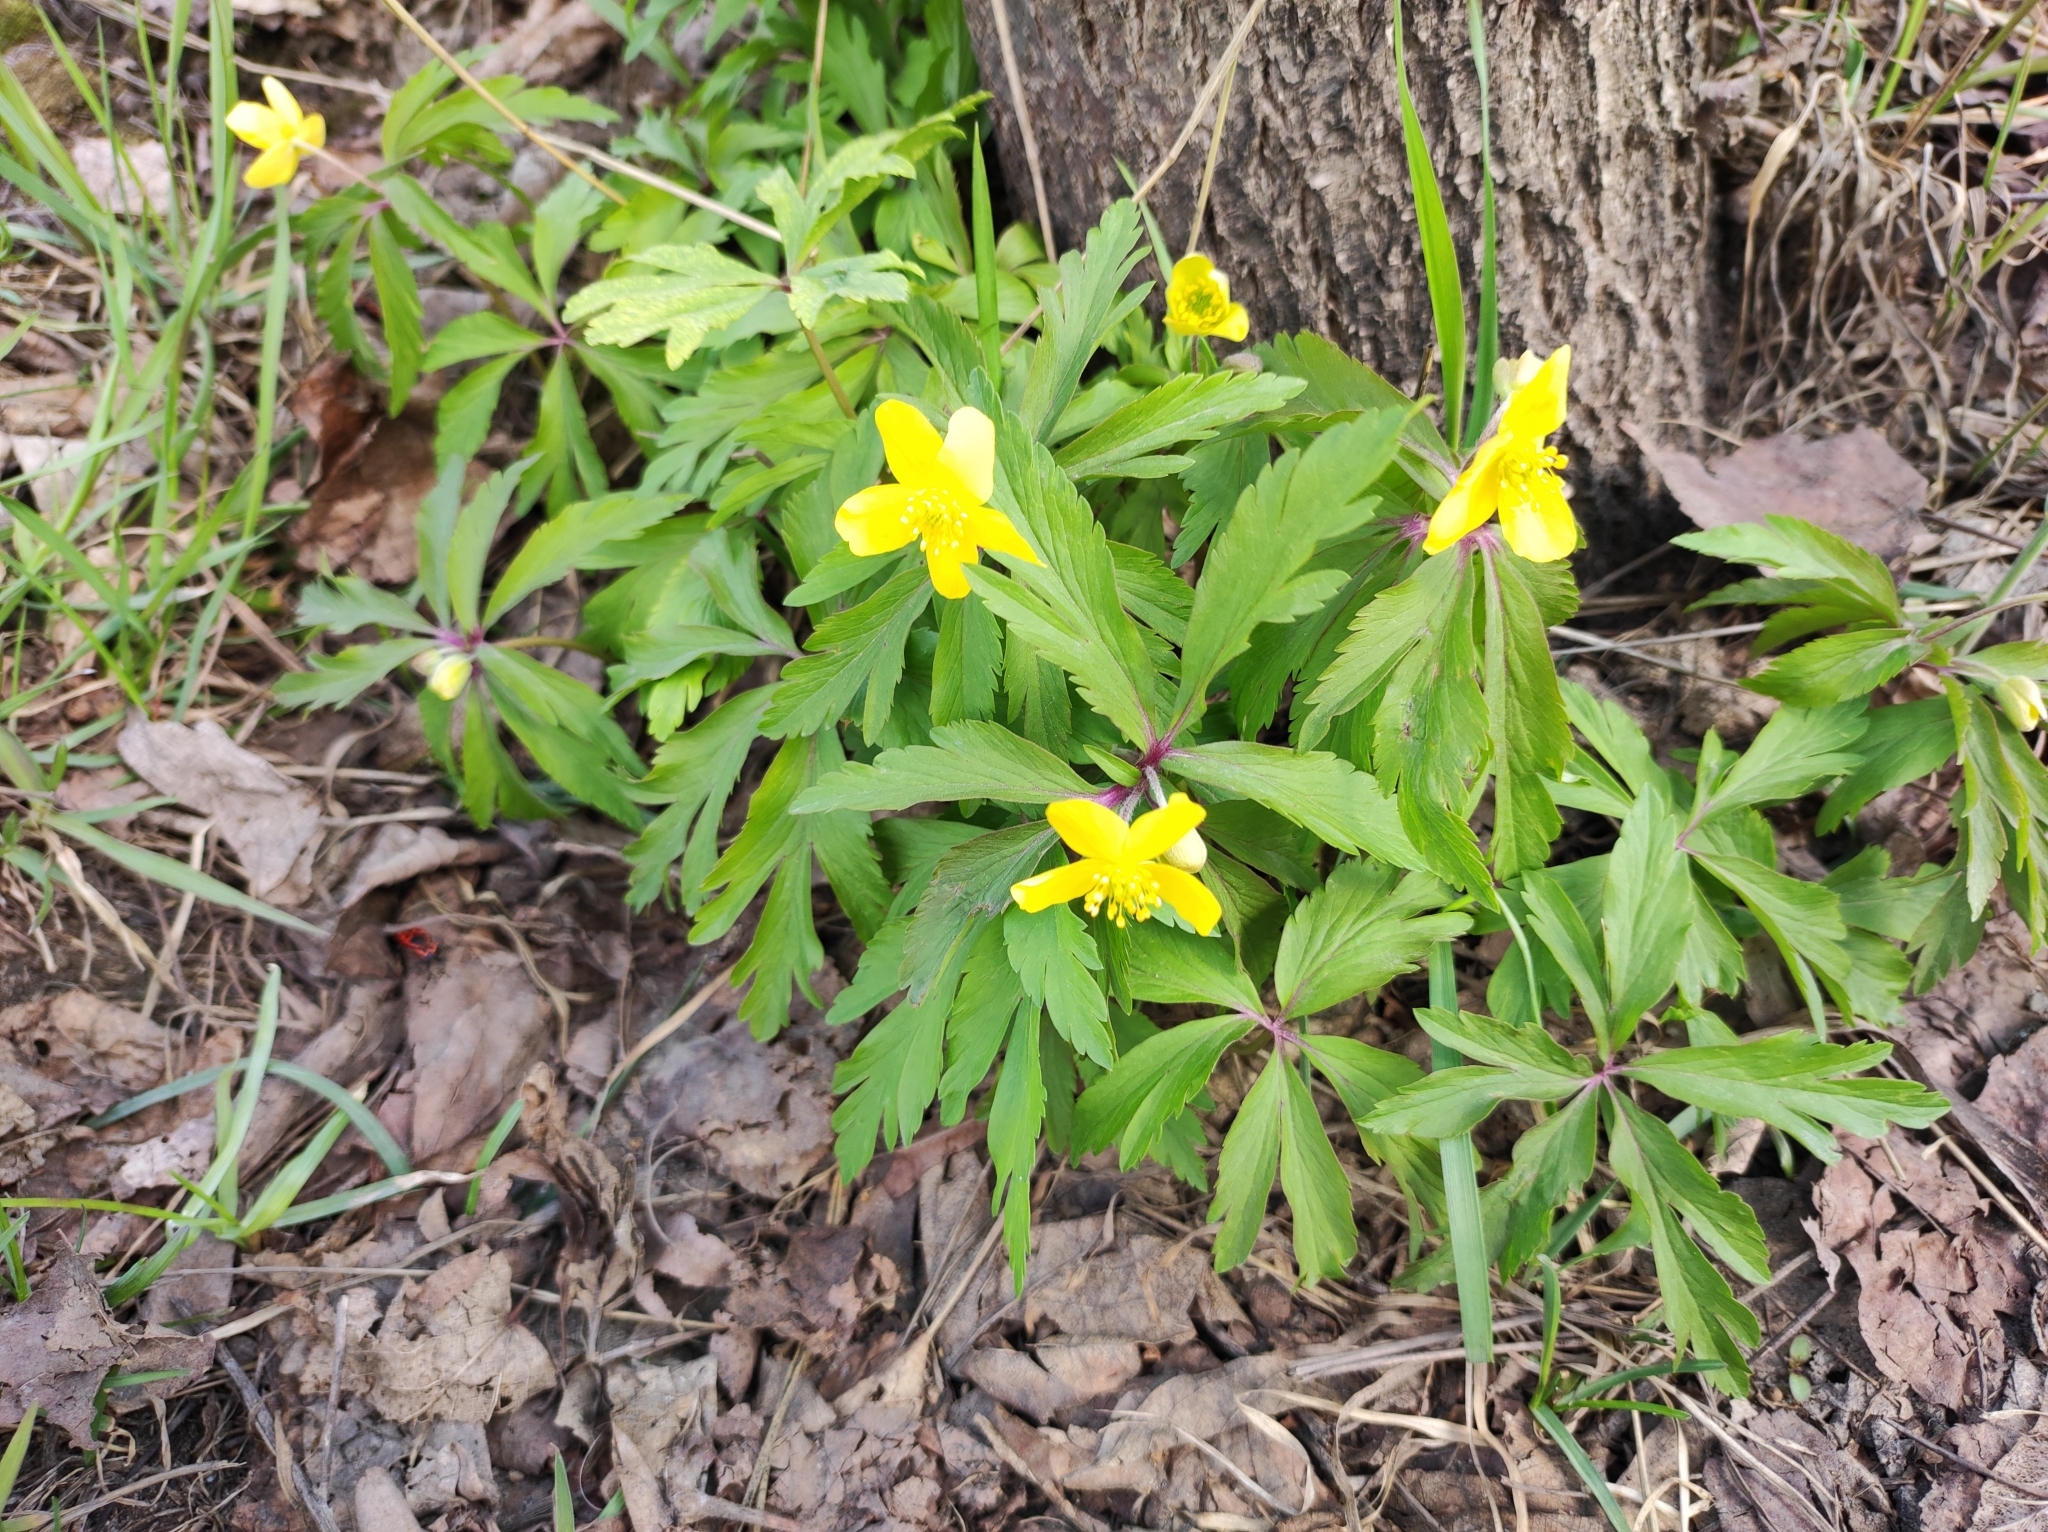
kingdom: Plantae
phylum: Tracheophyta
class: Magnoliopsida
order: Ranunculales
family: Ranunculaceae
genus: Anemone
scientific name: Anemone ranunculoides
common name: Yellow anemone
